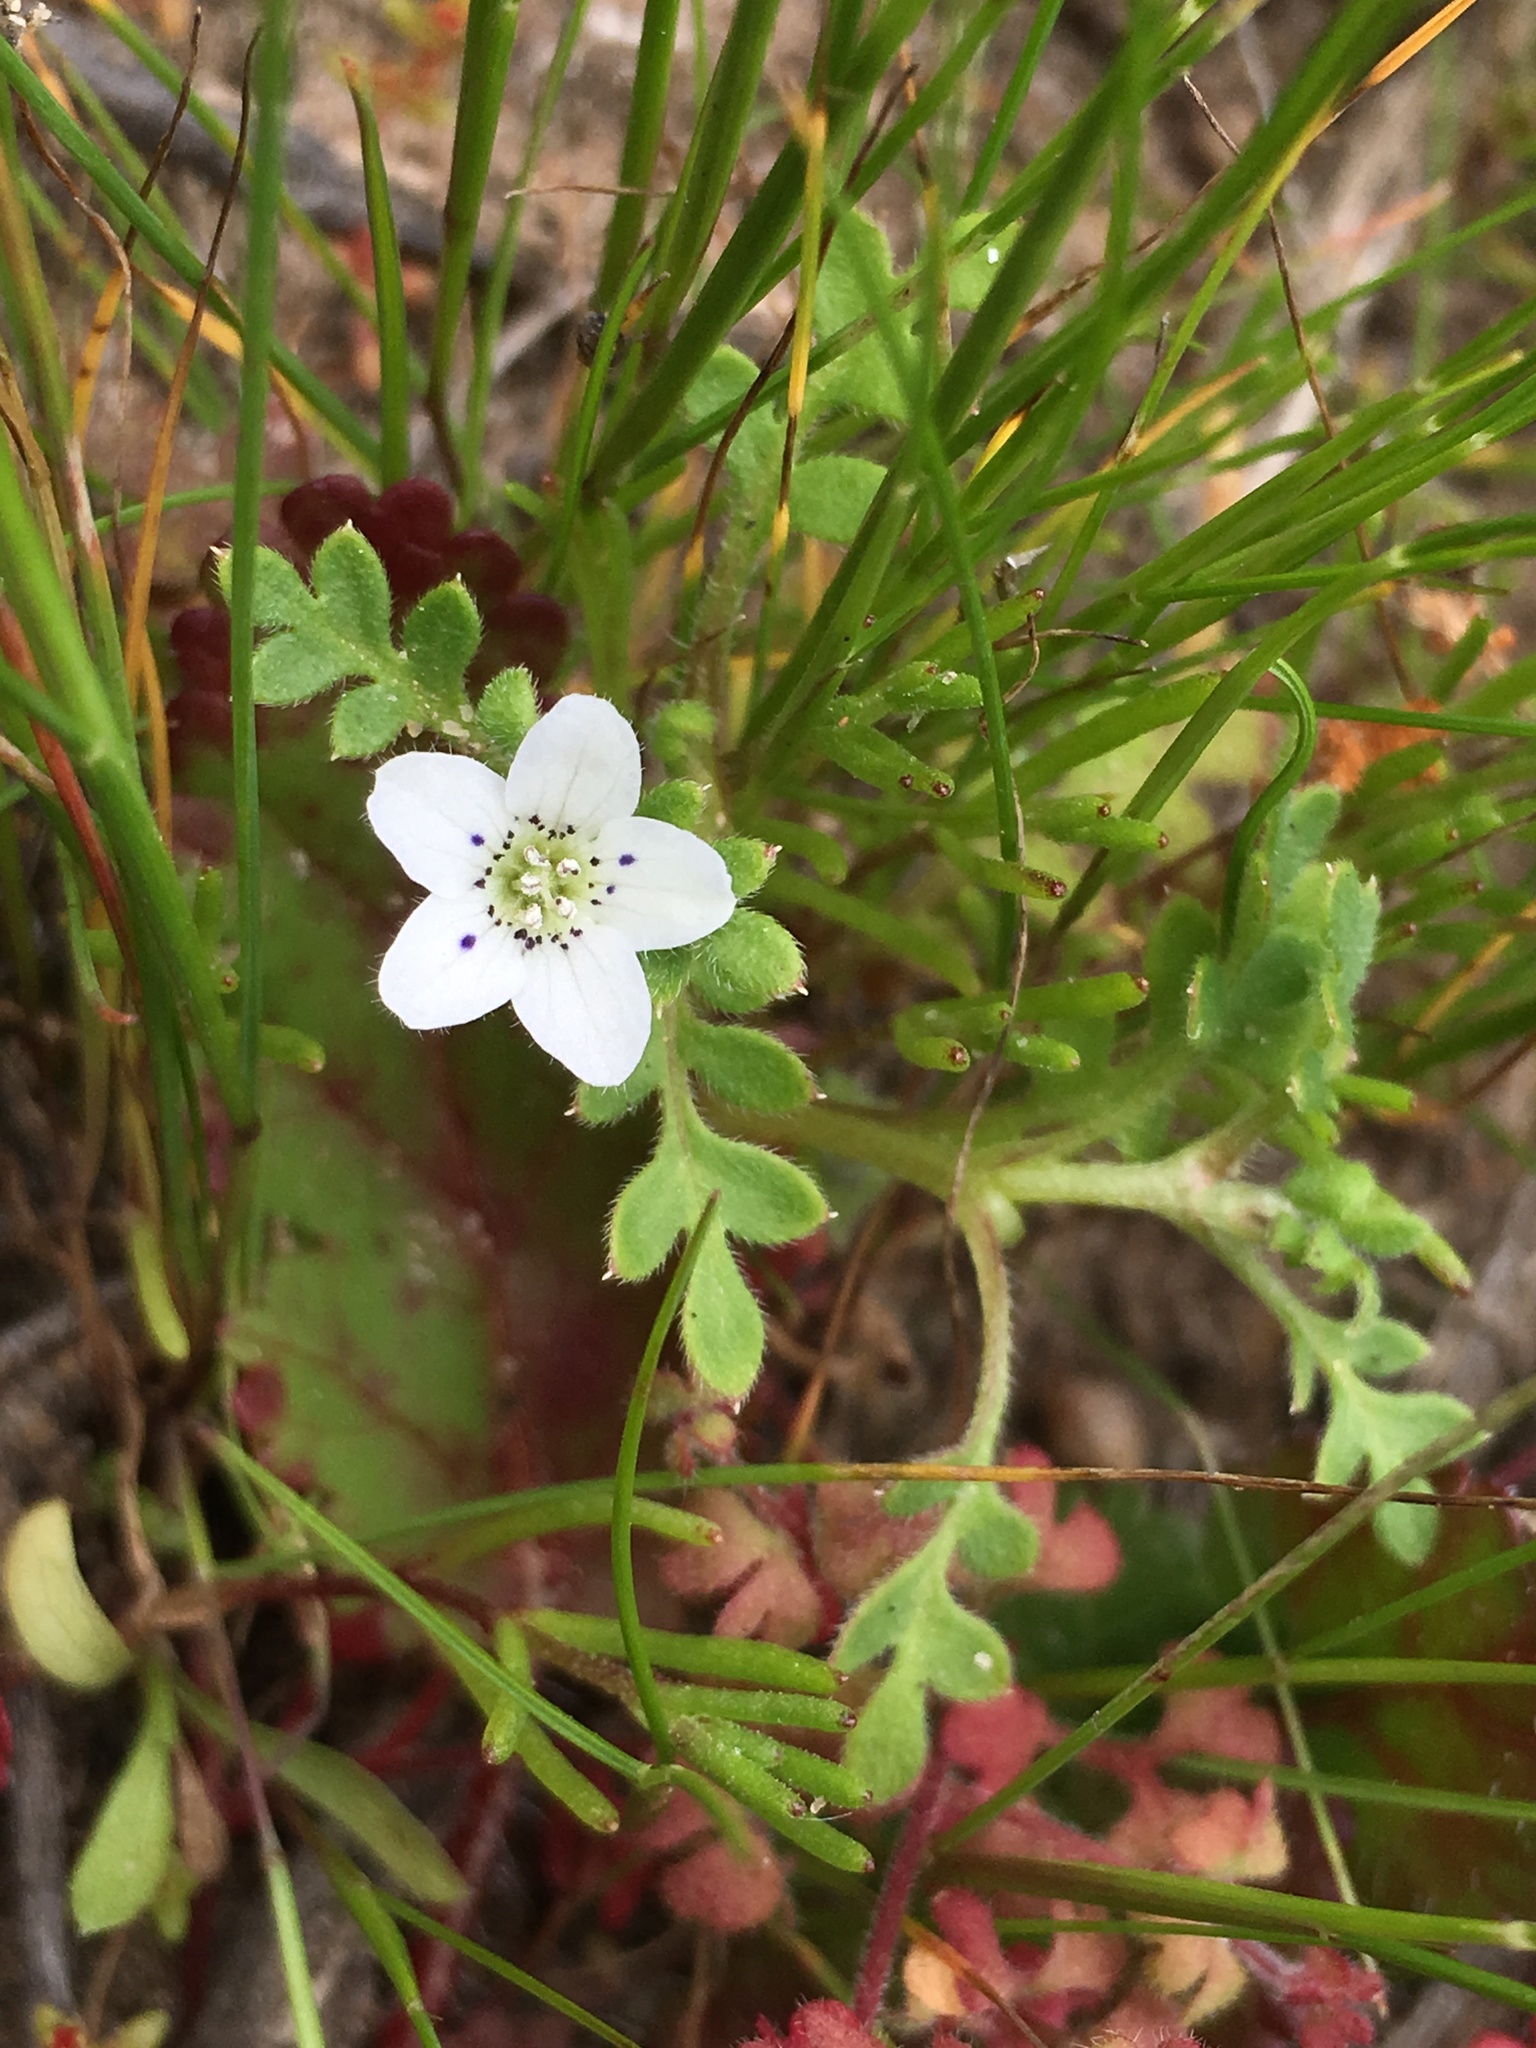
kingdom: Plantae
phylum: Tracheophyta
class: Magnoliopsida
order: Boraginales
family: Hydrophyllaceae
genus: Nemophila
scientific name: Nemophila pedunculata
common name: Little-foot baby-blue-eyes
